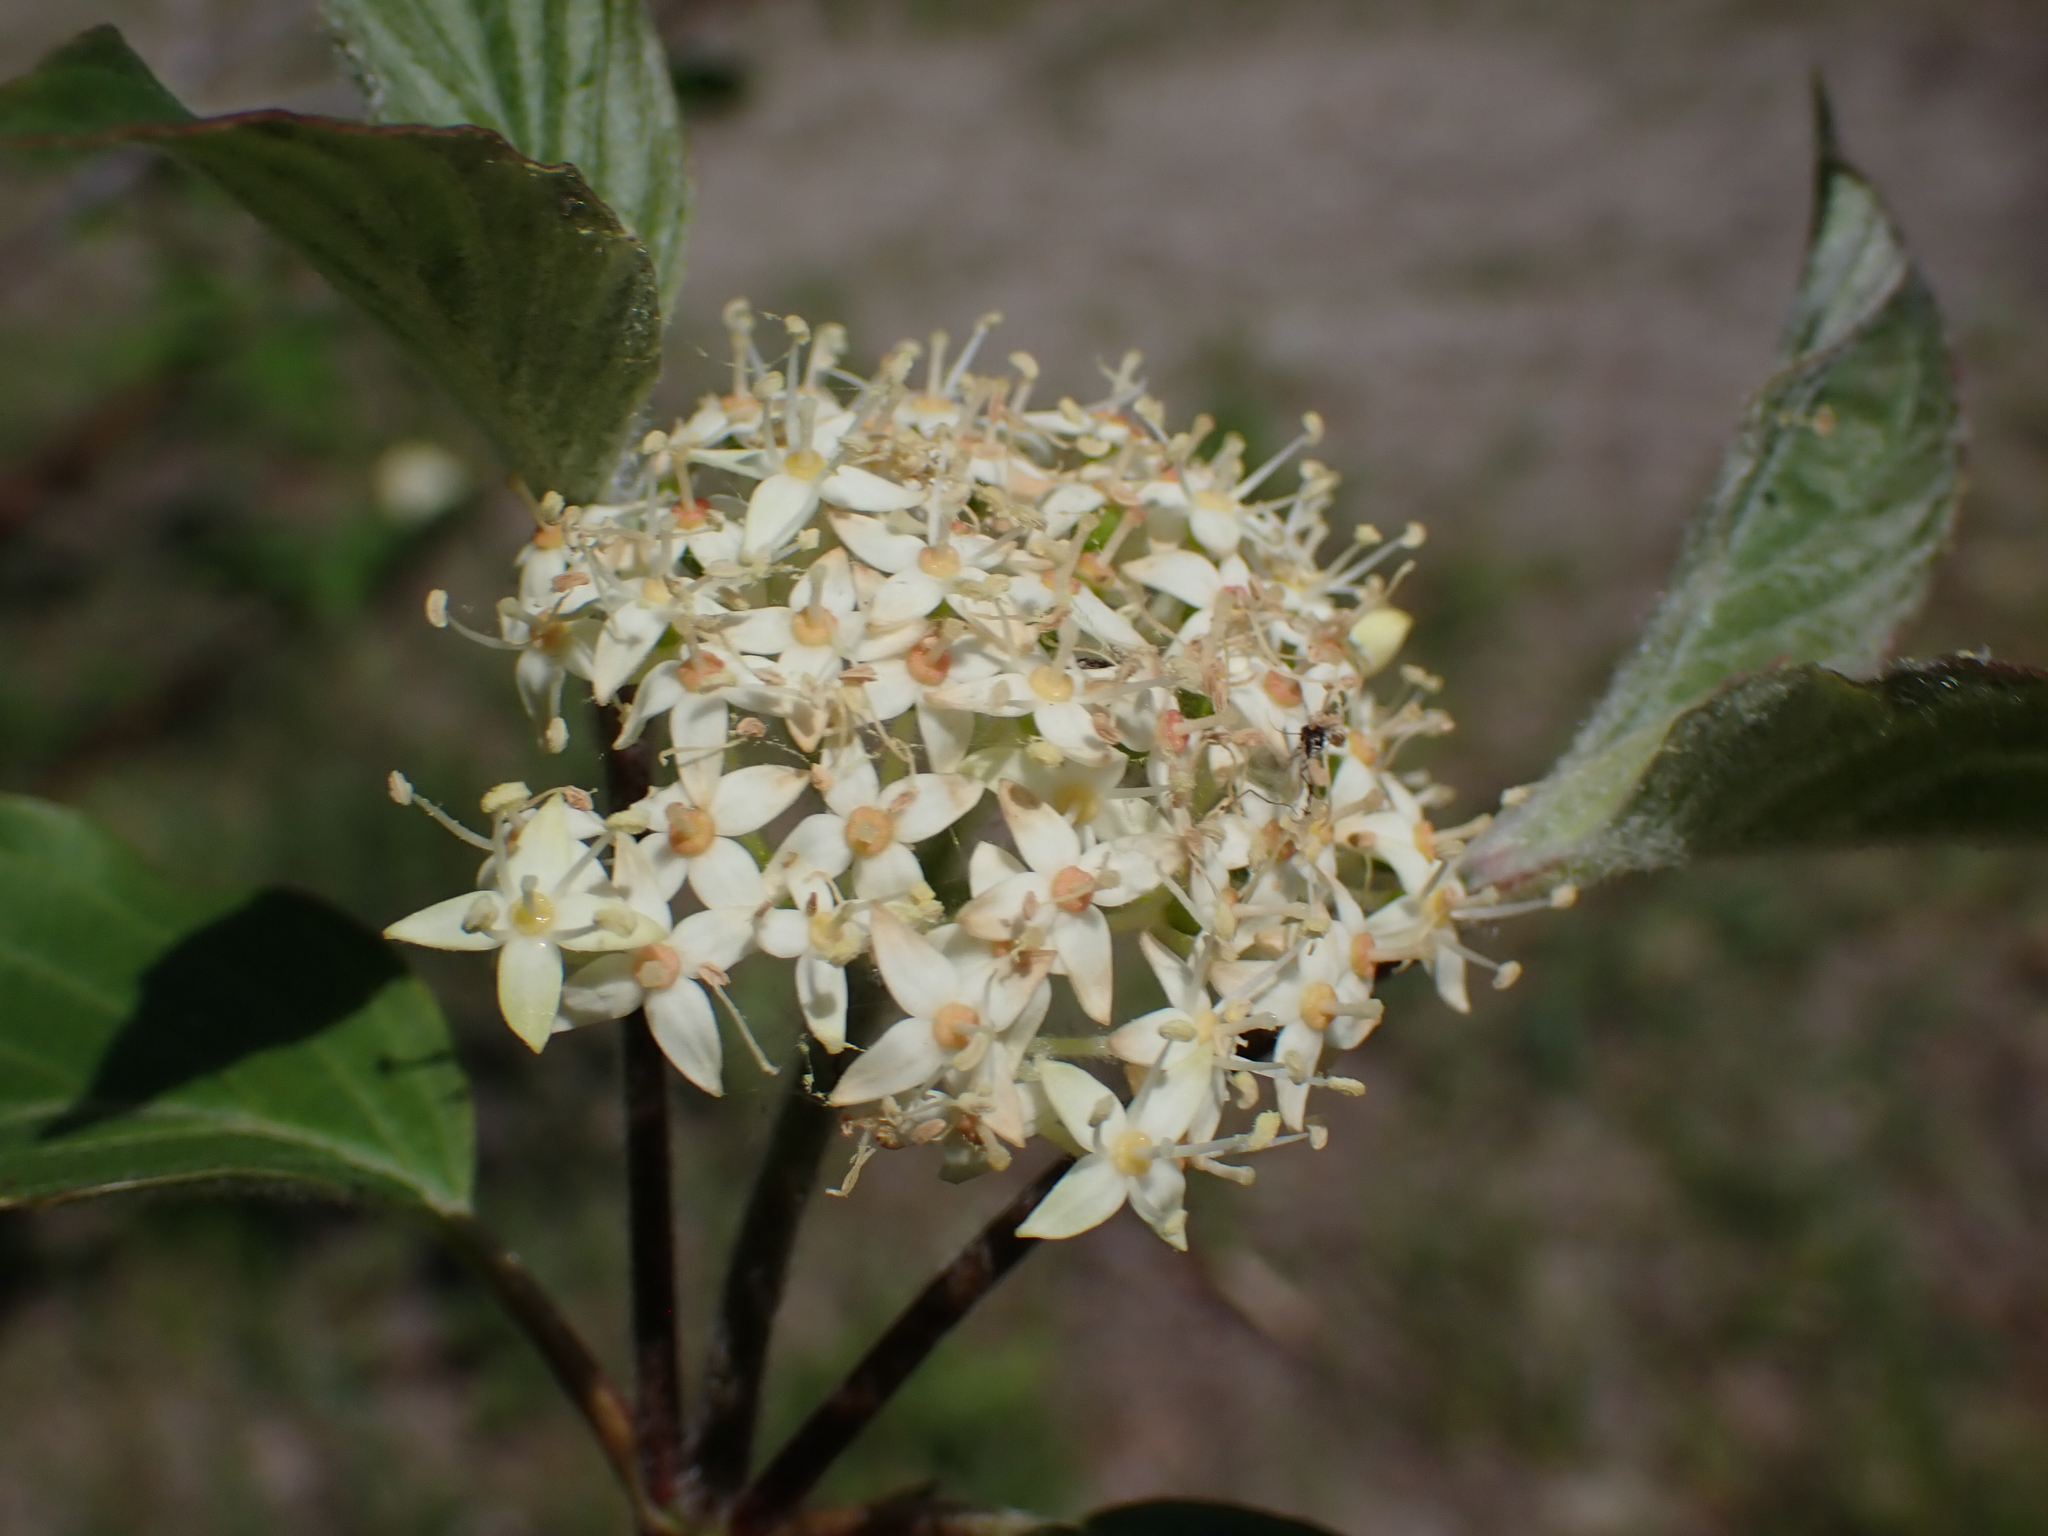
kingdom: Plantae
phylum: Tracheophyta
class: Magnoliopsida
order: Cornales
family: Cornaceae
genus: Cornus
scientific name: Cornus sericea
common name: Red-osier dogwood
